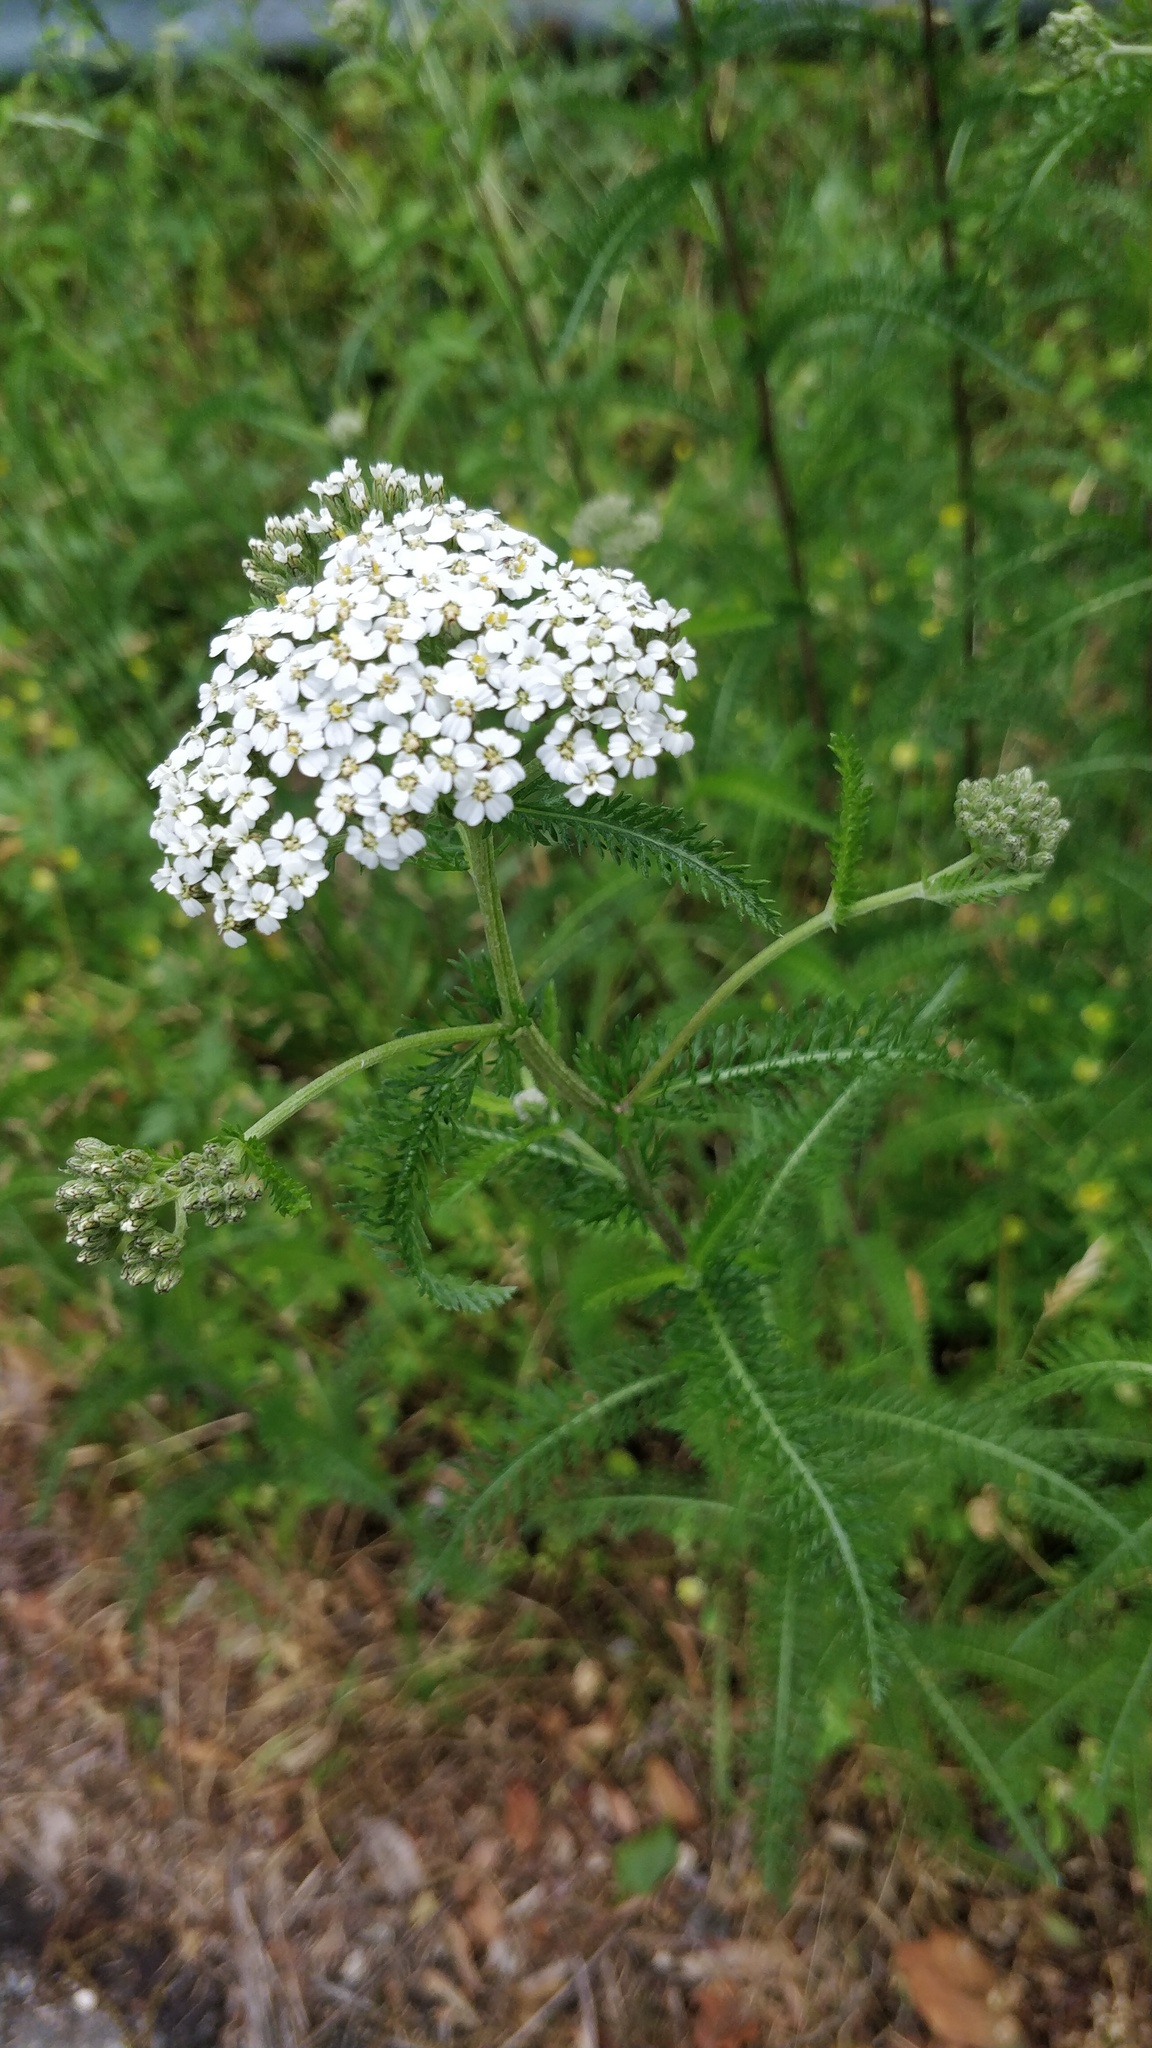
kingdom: Plantae
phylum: Tracheophyta
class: Magnoliopsida
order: Asterales
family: Asteraceae
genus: Achillea
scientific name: Achillea millefolium
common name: Yarrow
